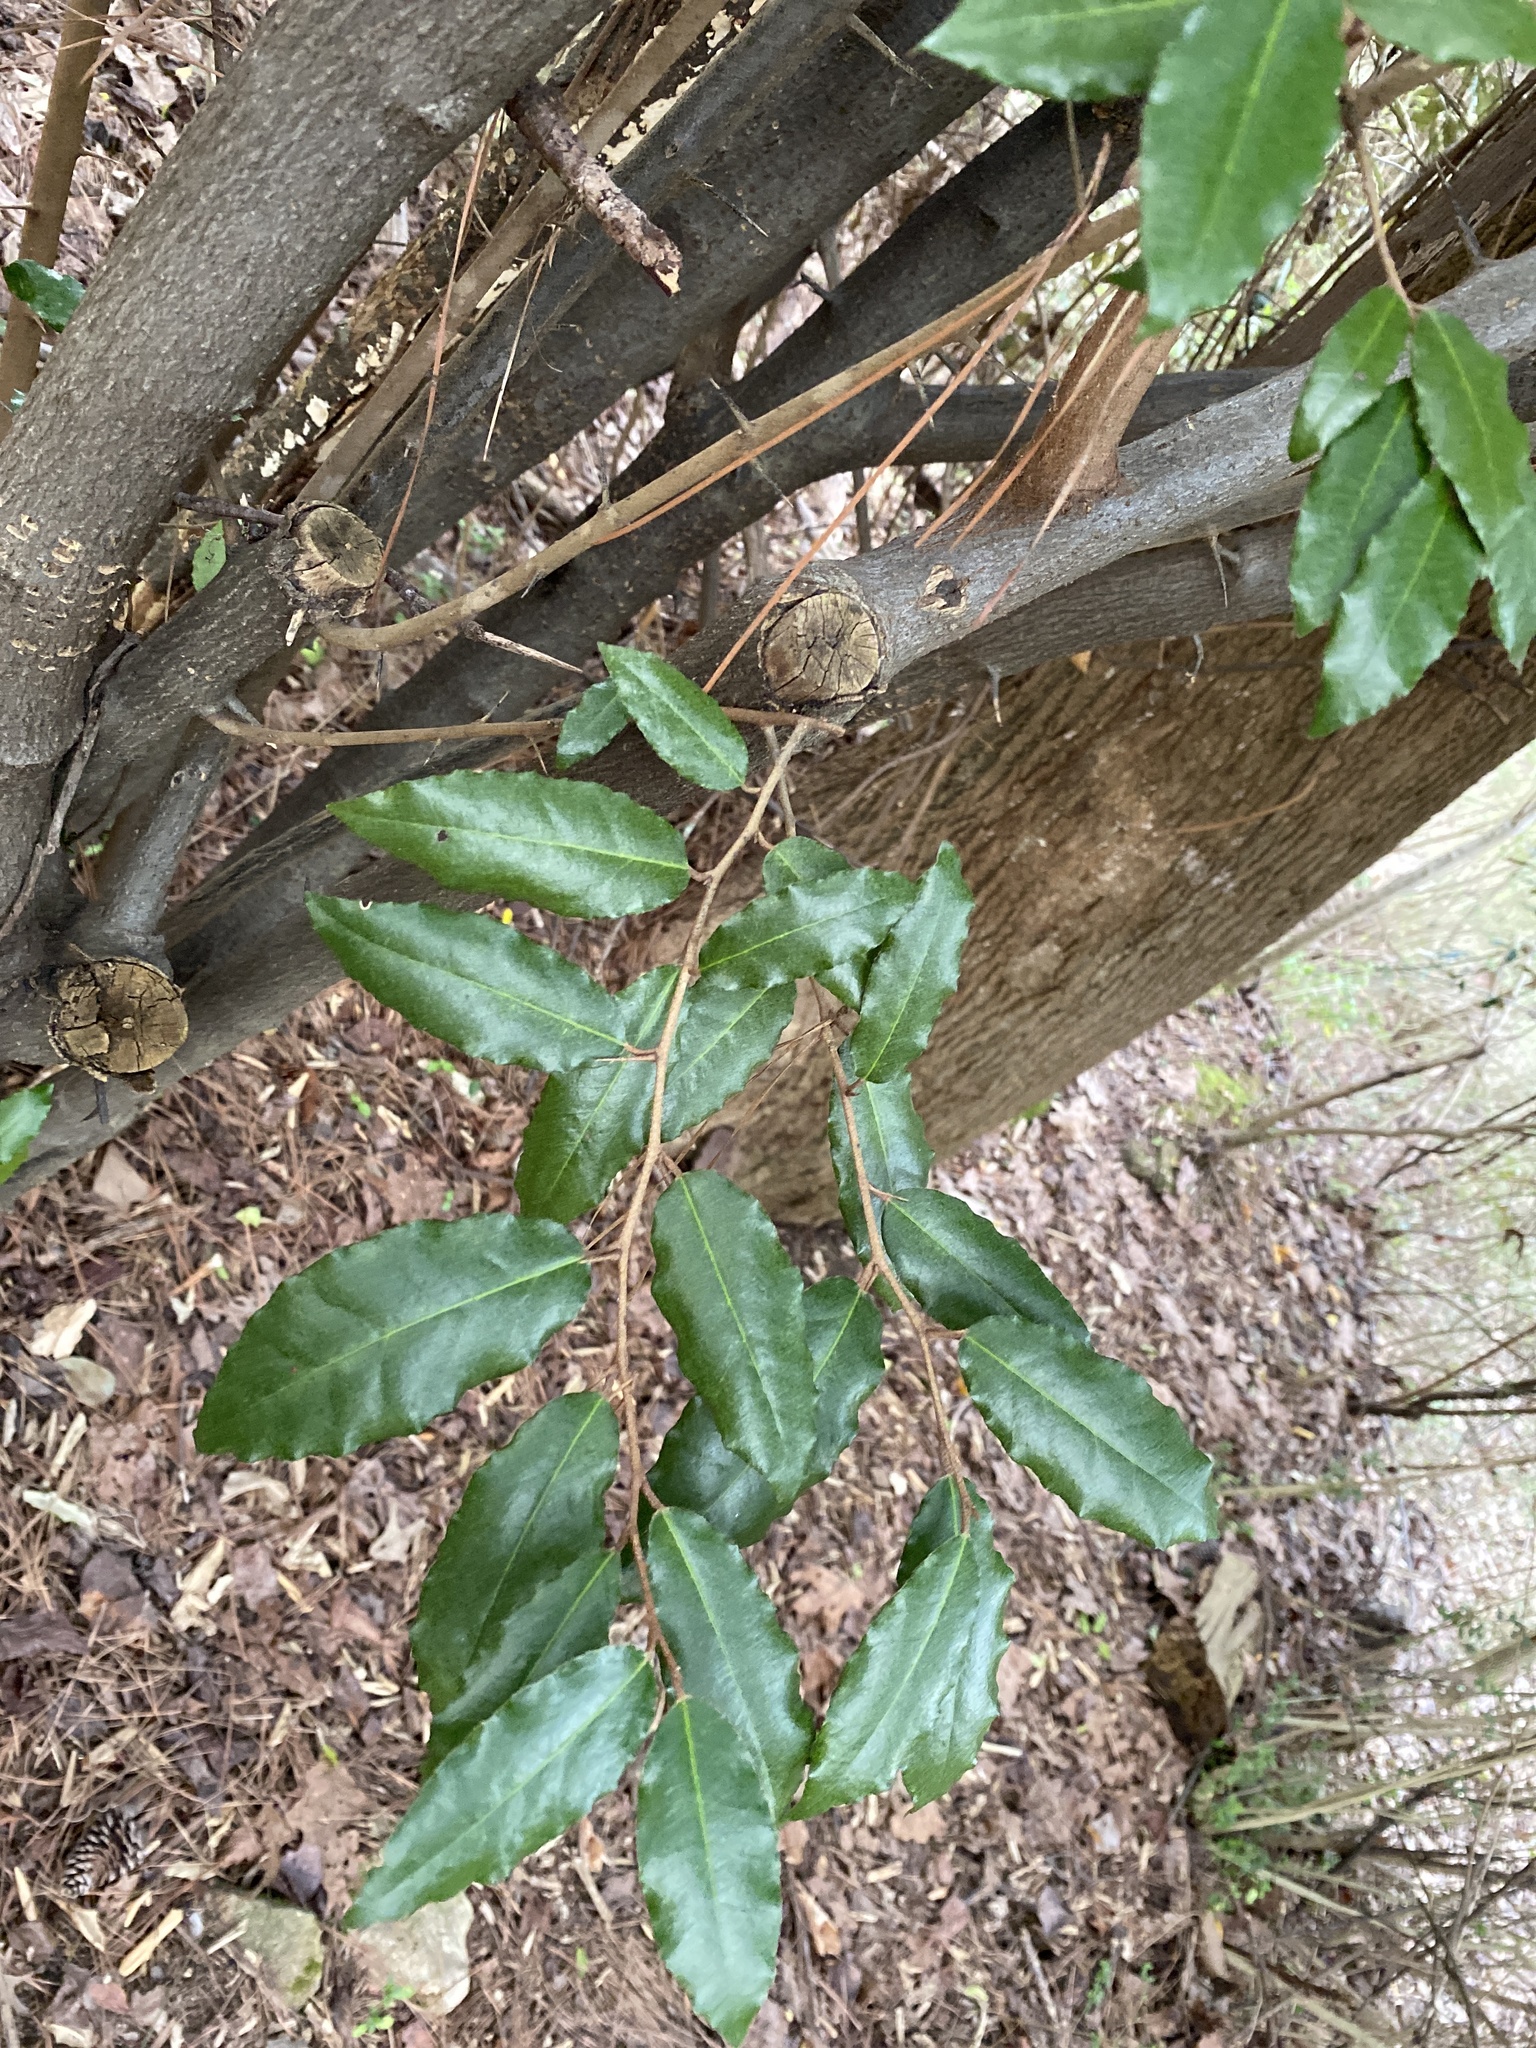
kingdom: Plantae
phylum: Tracheophyta
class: Magnoliopsida
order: Rosales
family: Elaeagnaceae
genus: Elaeagnus
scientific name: Elaeagnus pungens
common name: Spiny oleaster
